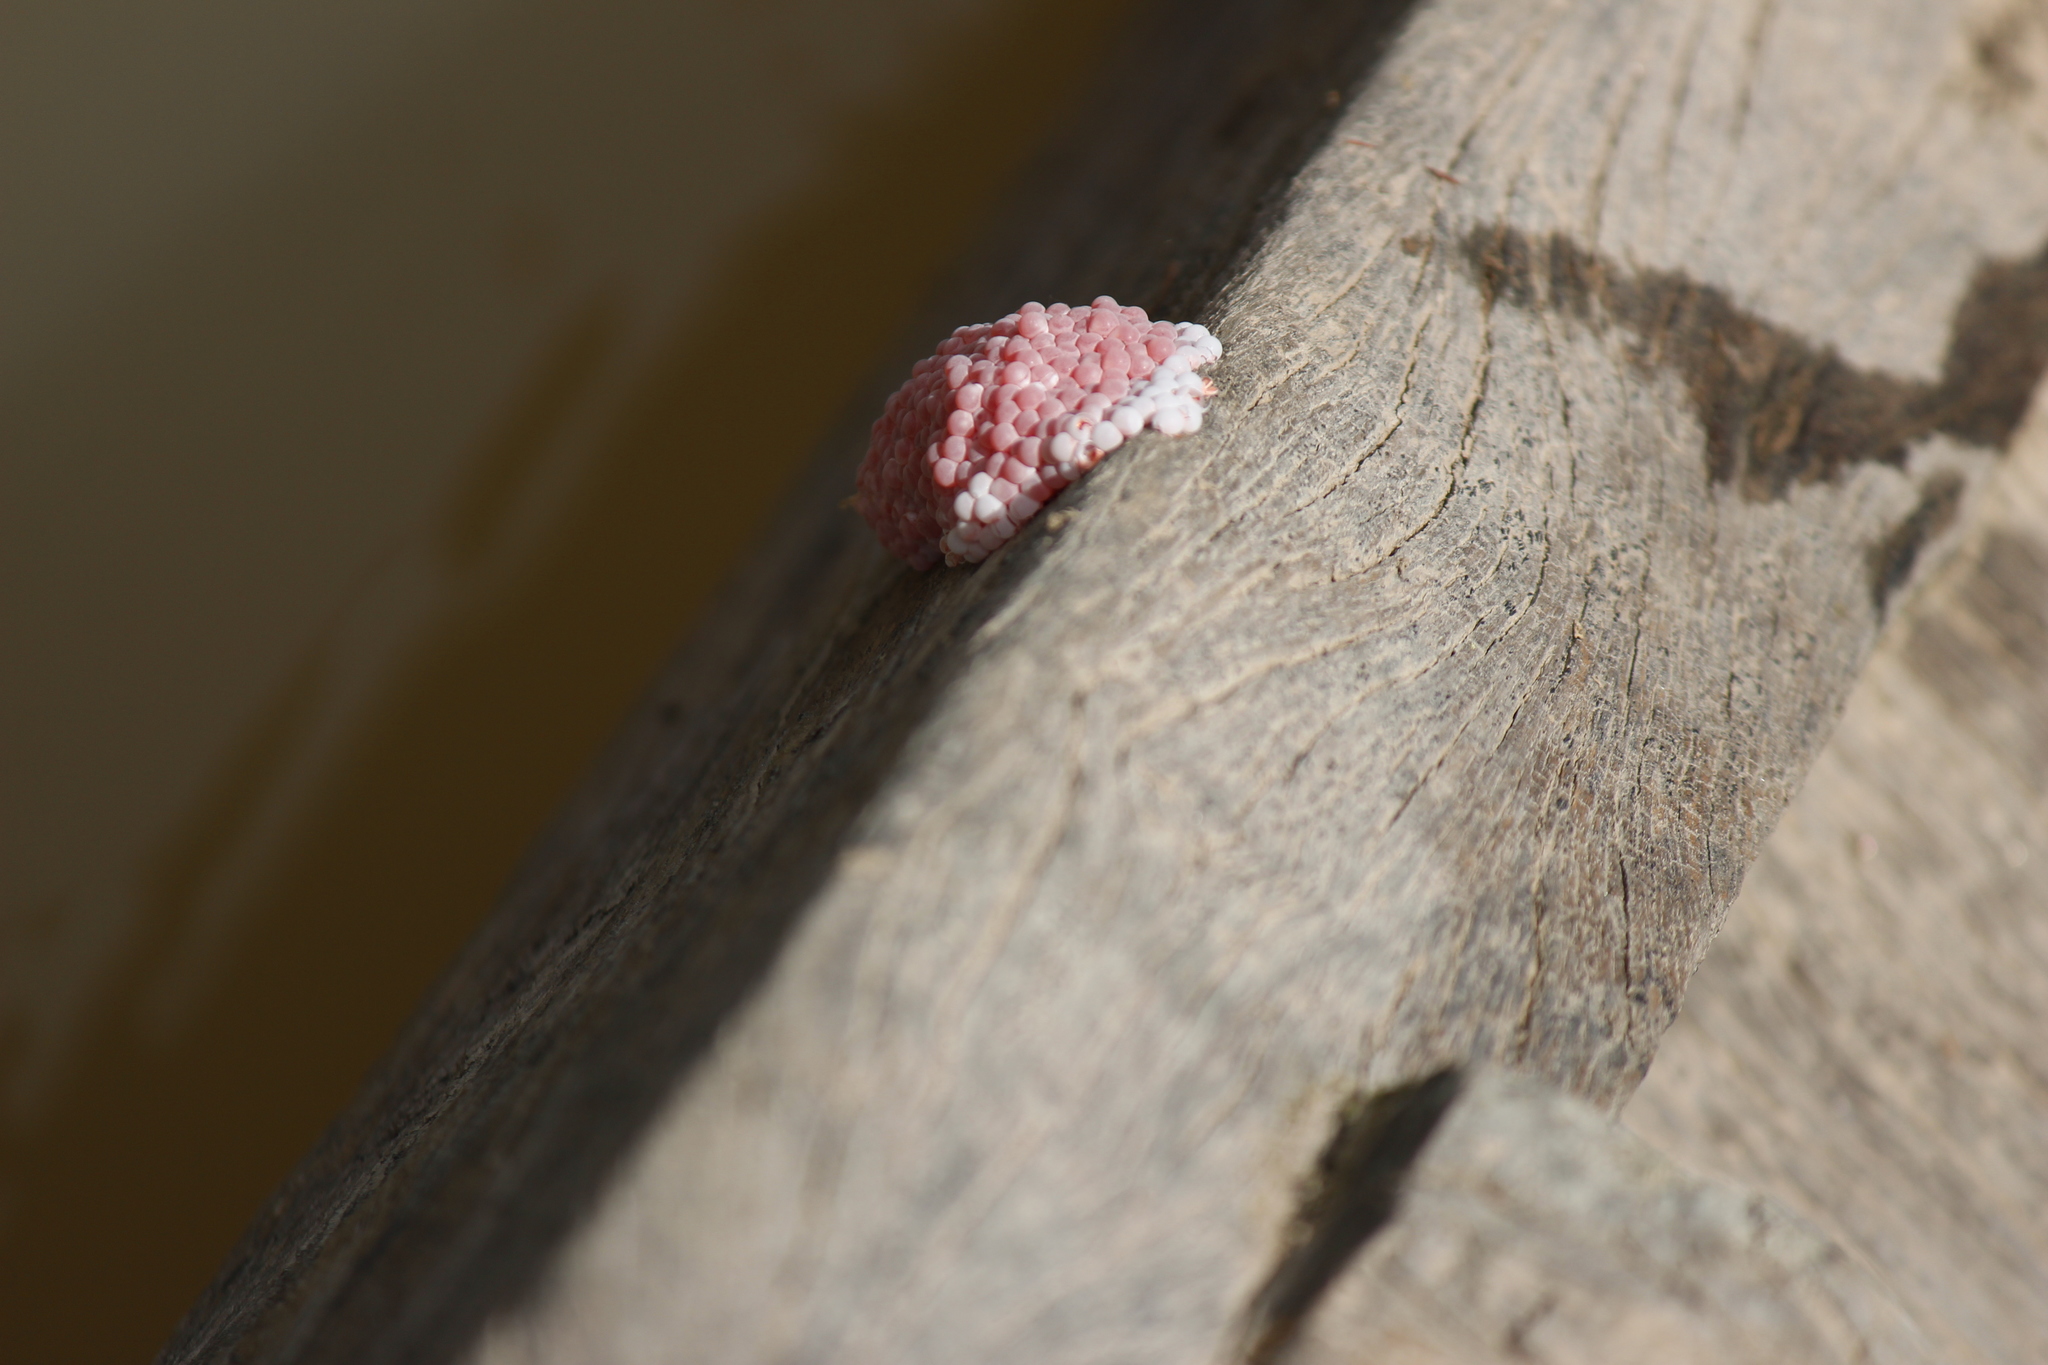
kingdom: Animalia
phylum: Mollusca
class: Gastropoda
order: Architaenioglossa
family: Ampullariidae
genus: Pomacea
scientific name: Pomacea canaliculata
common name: Channeled applesnail
